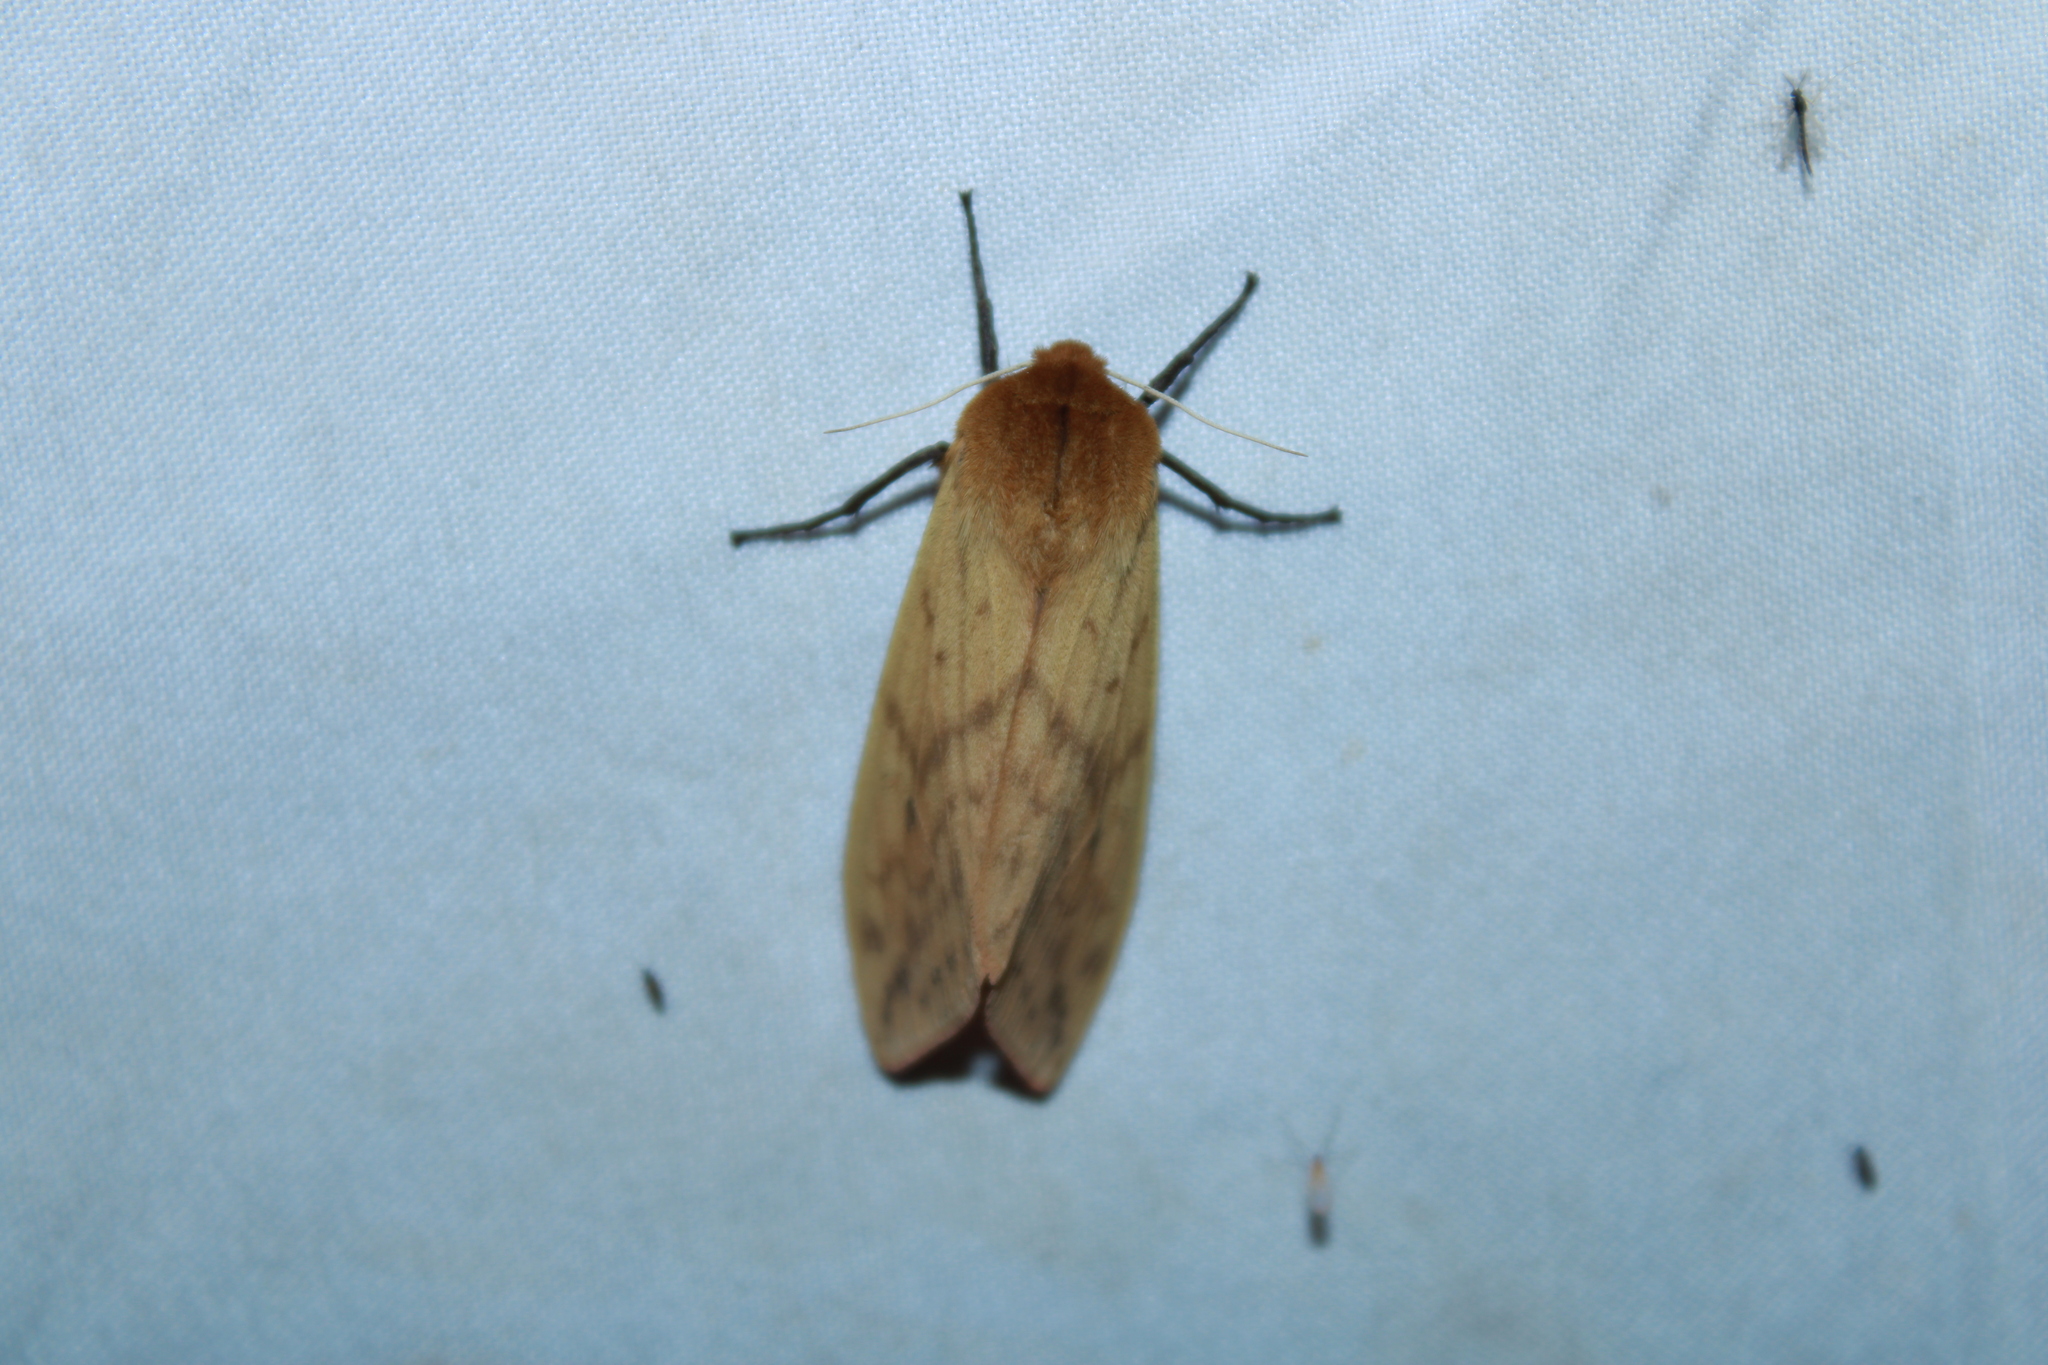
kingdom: Animalia
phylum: Arthropoda
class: Insecta
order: Lepidoptera
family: Erebidae
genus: Pyrrharctia
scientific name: Pyrrharctia isabella
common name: Isabella tiger moth
